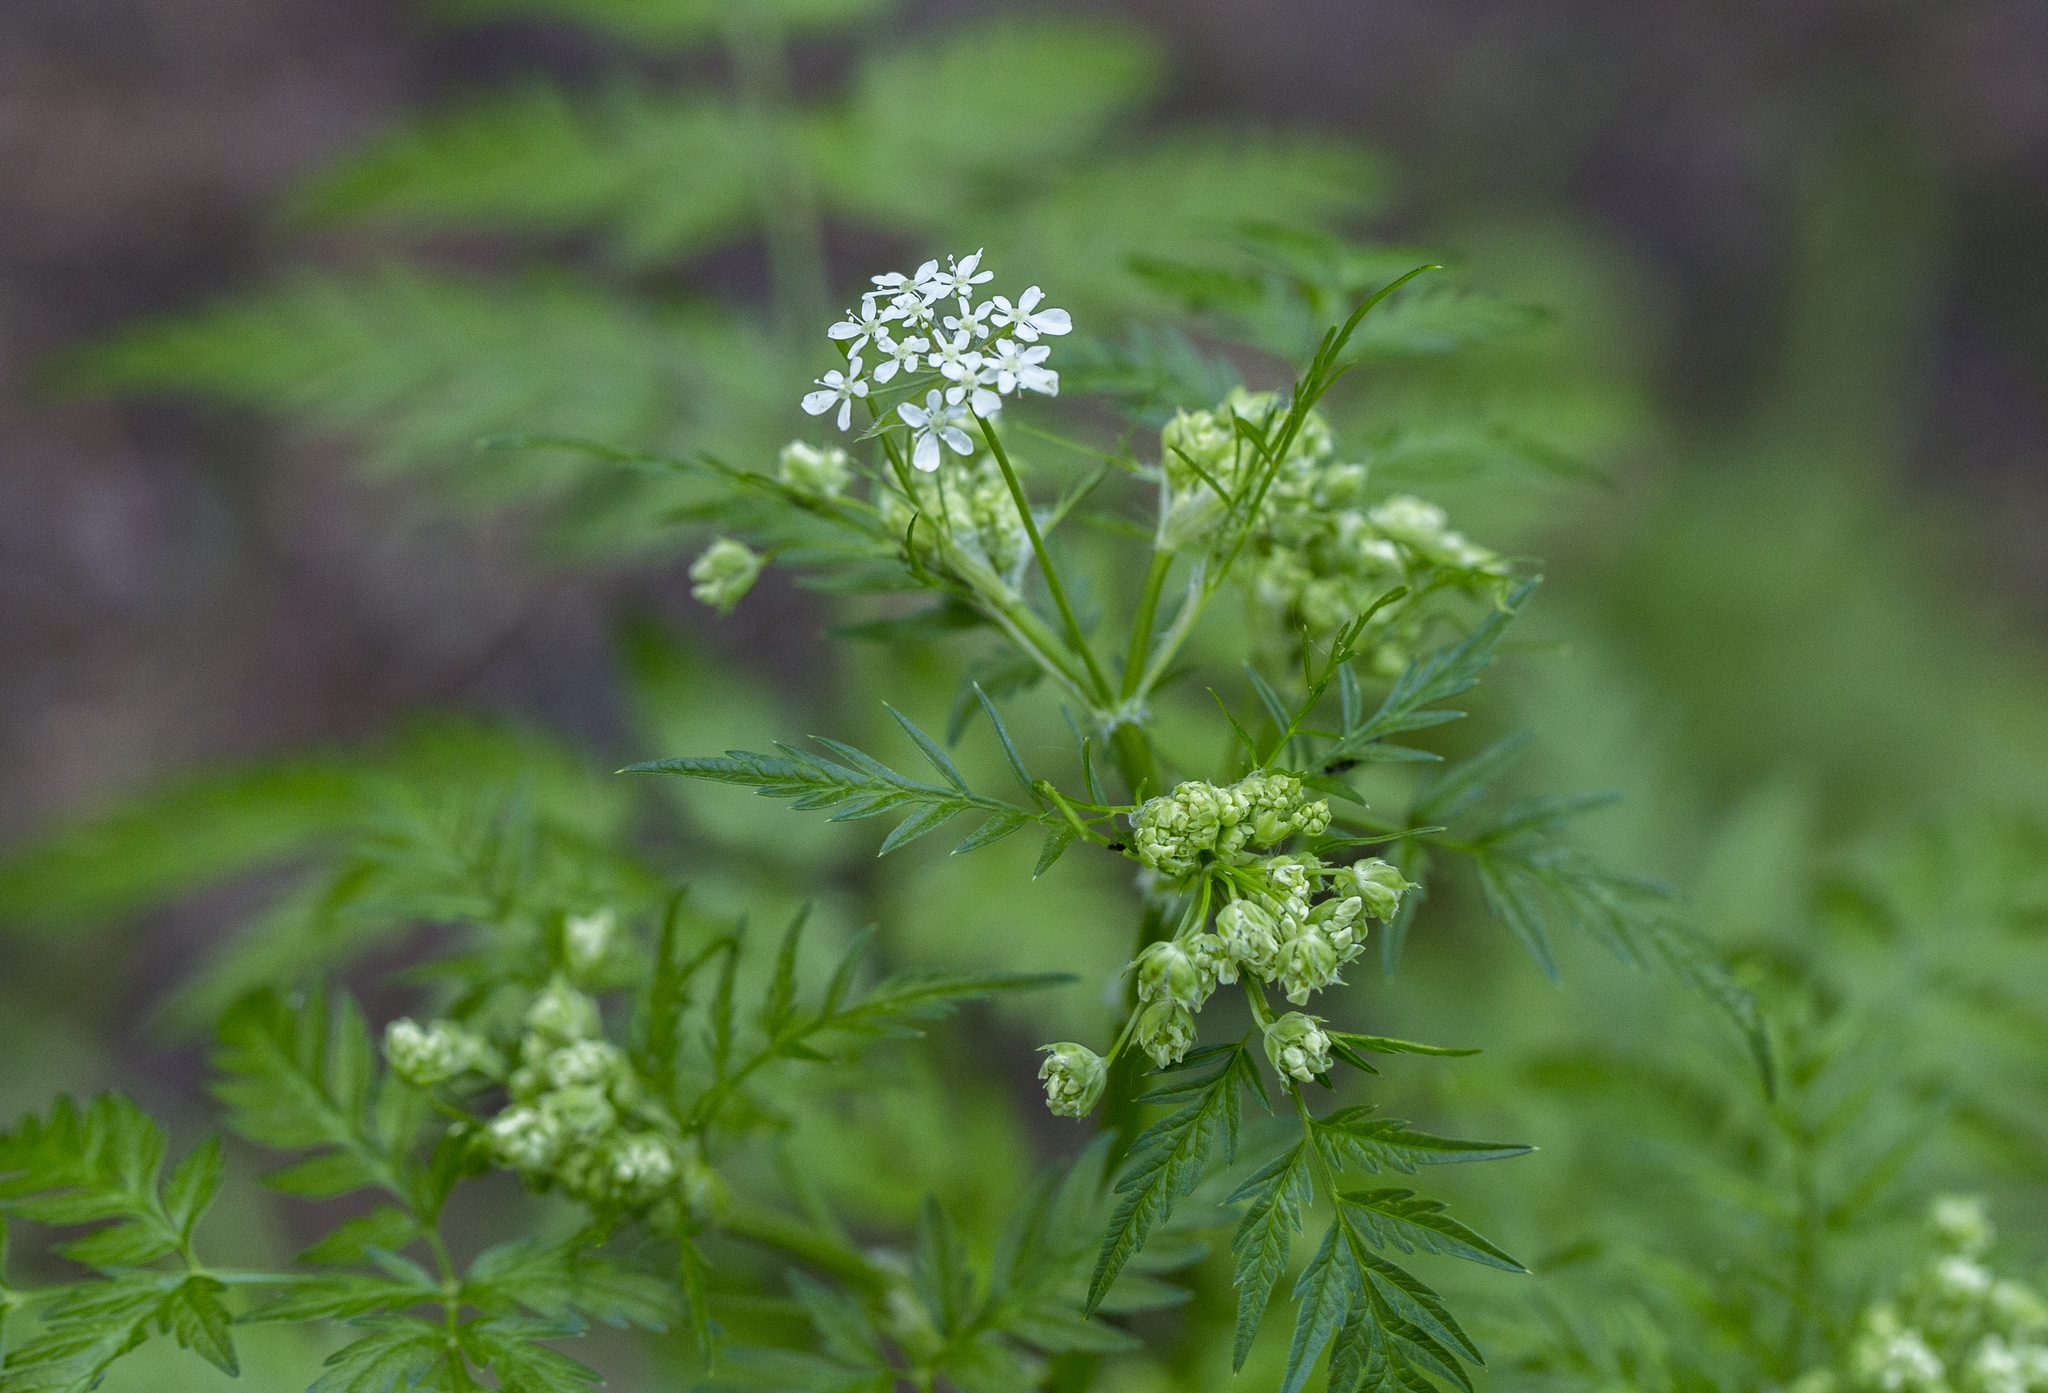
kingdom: Plantae
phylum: Tracheophyta
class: Magnoliopsida
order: Apiales
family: Apiaceae
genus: Anthriscus
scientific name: Anthriscus sylvestris
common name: Cow parsley
